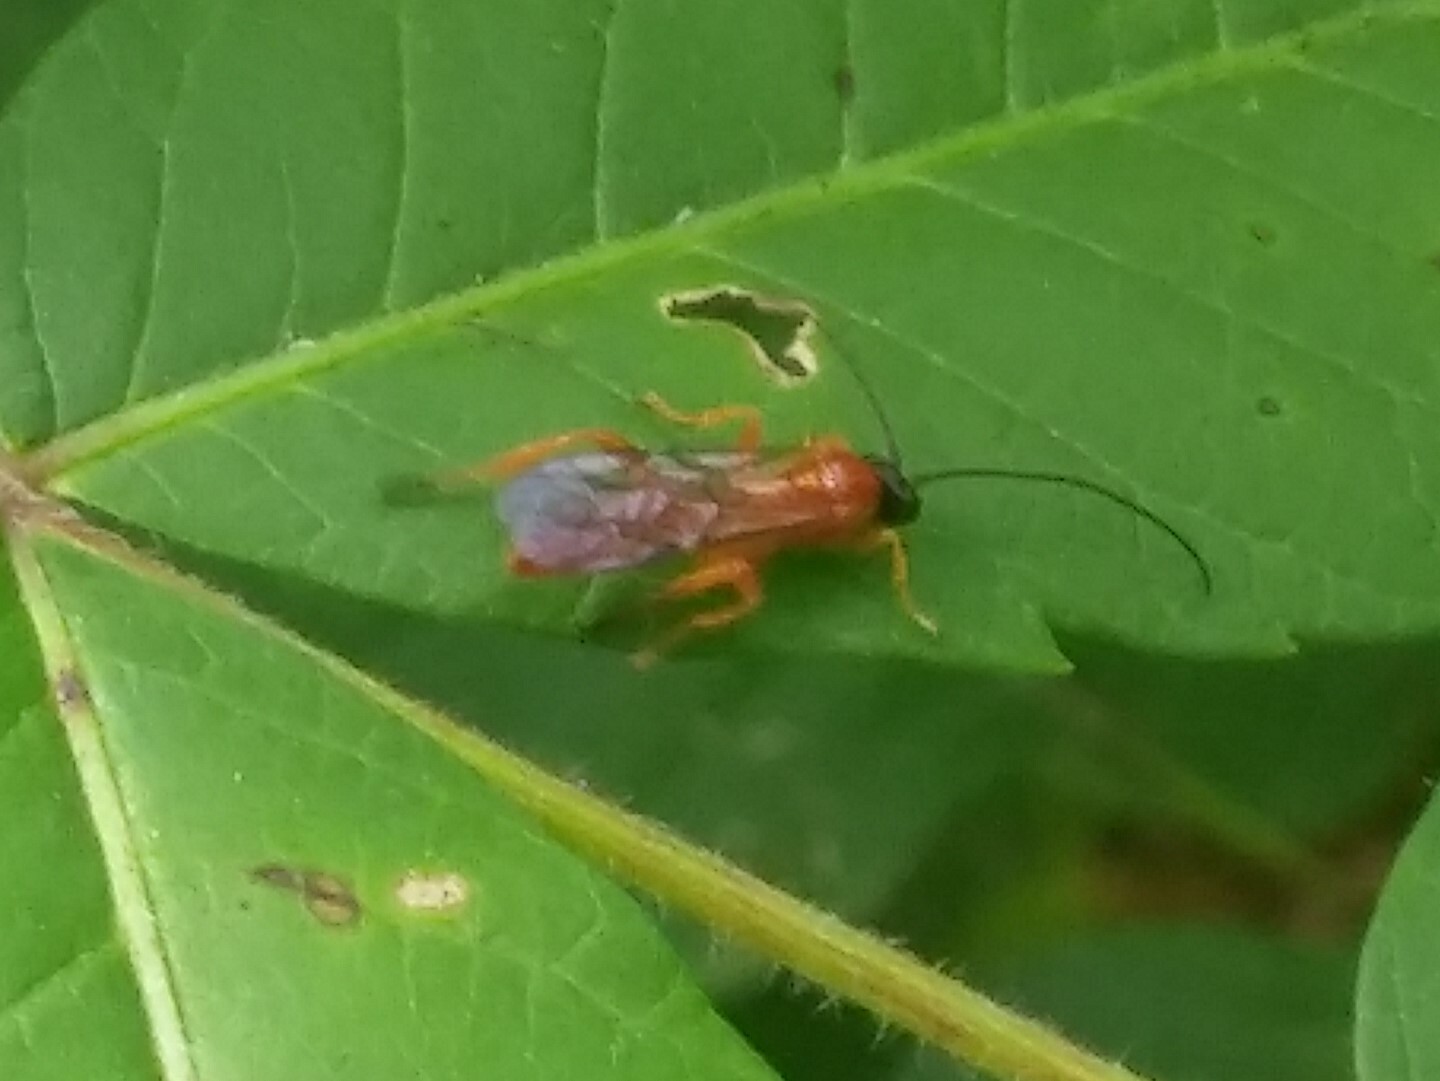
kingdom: Animalia
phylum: Arthropoda
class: Insecta
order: Hymenoptera
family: Ichneumonidae
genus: Theronia
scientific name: Theronia hilaris
